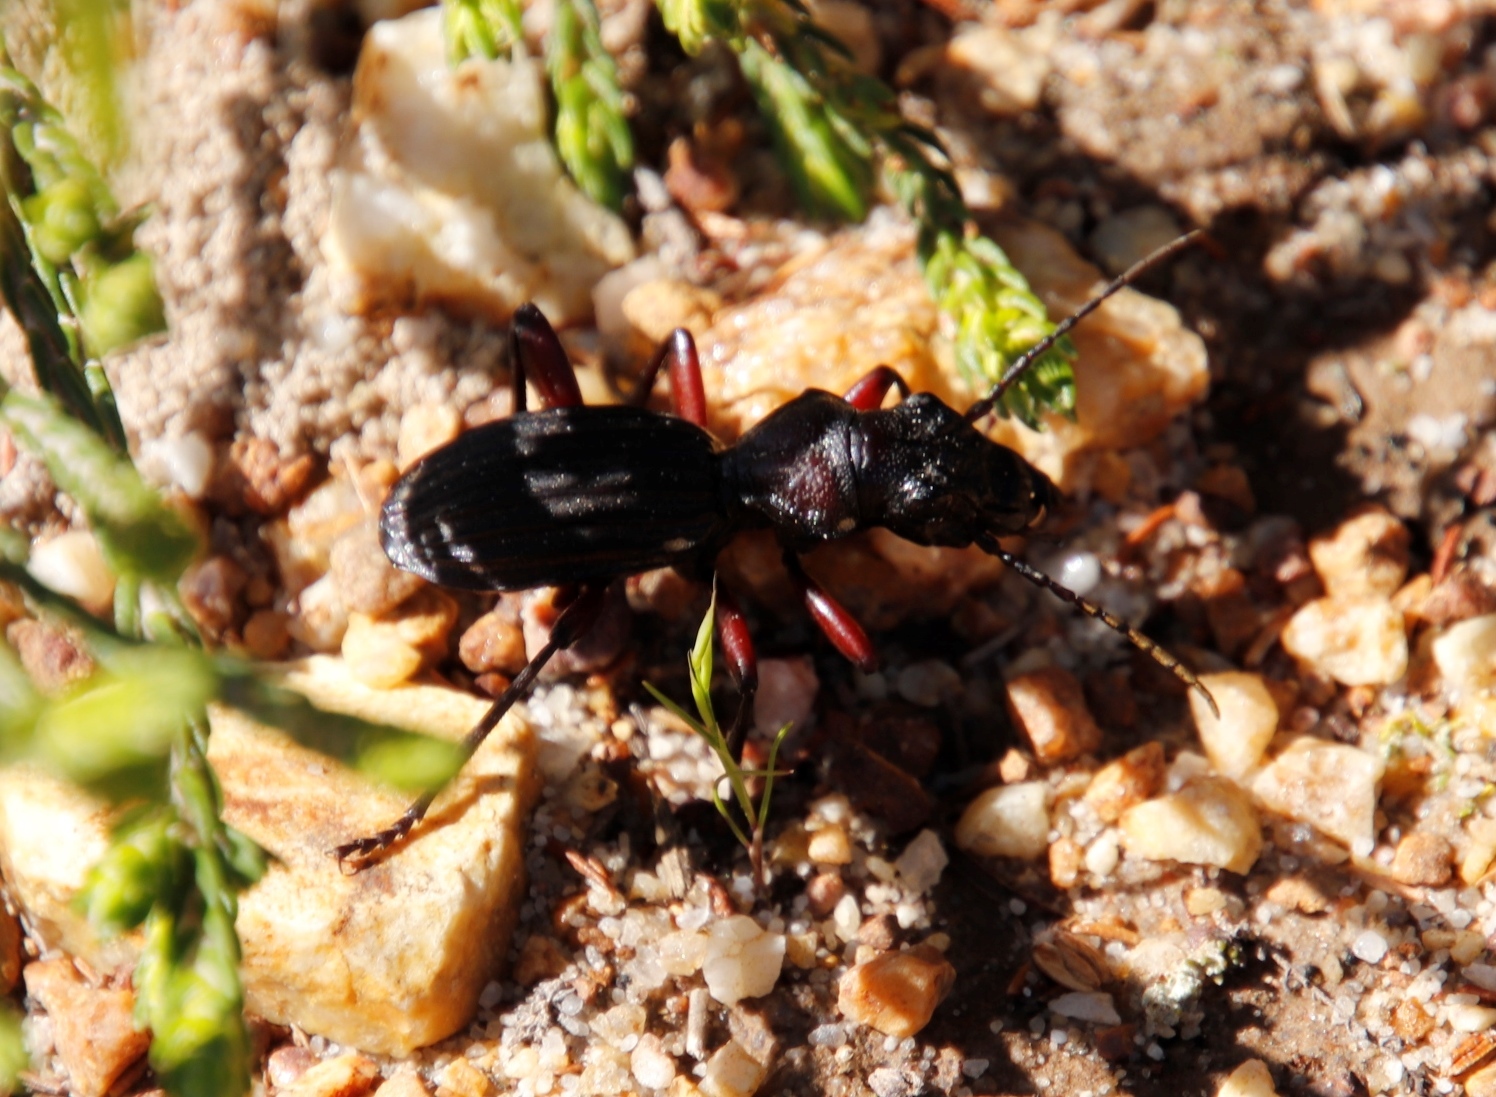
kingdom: Animalia
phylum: Arthropoda
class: Insecta
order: Coleoptera
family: Carabidae
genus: Anthia
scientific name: Anthia decemguttata
